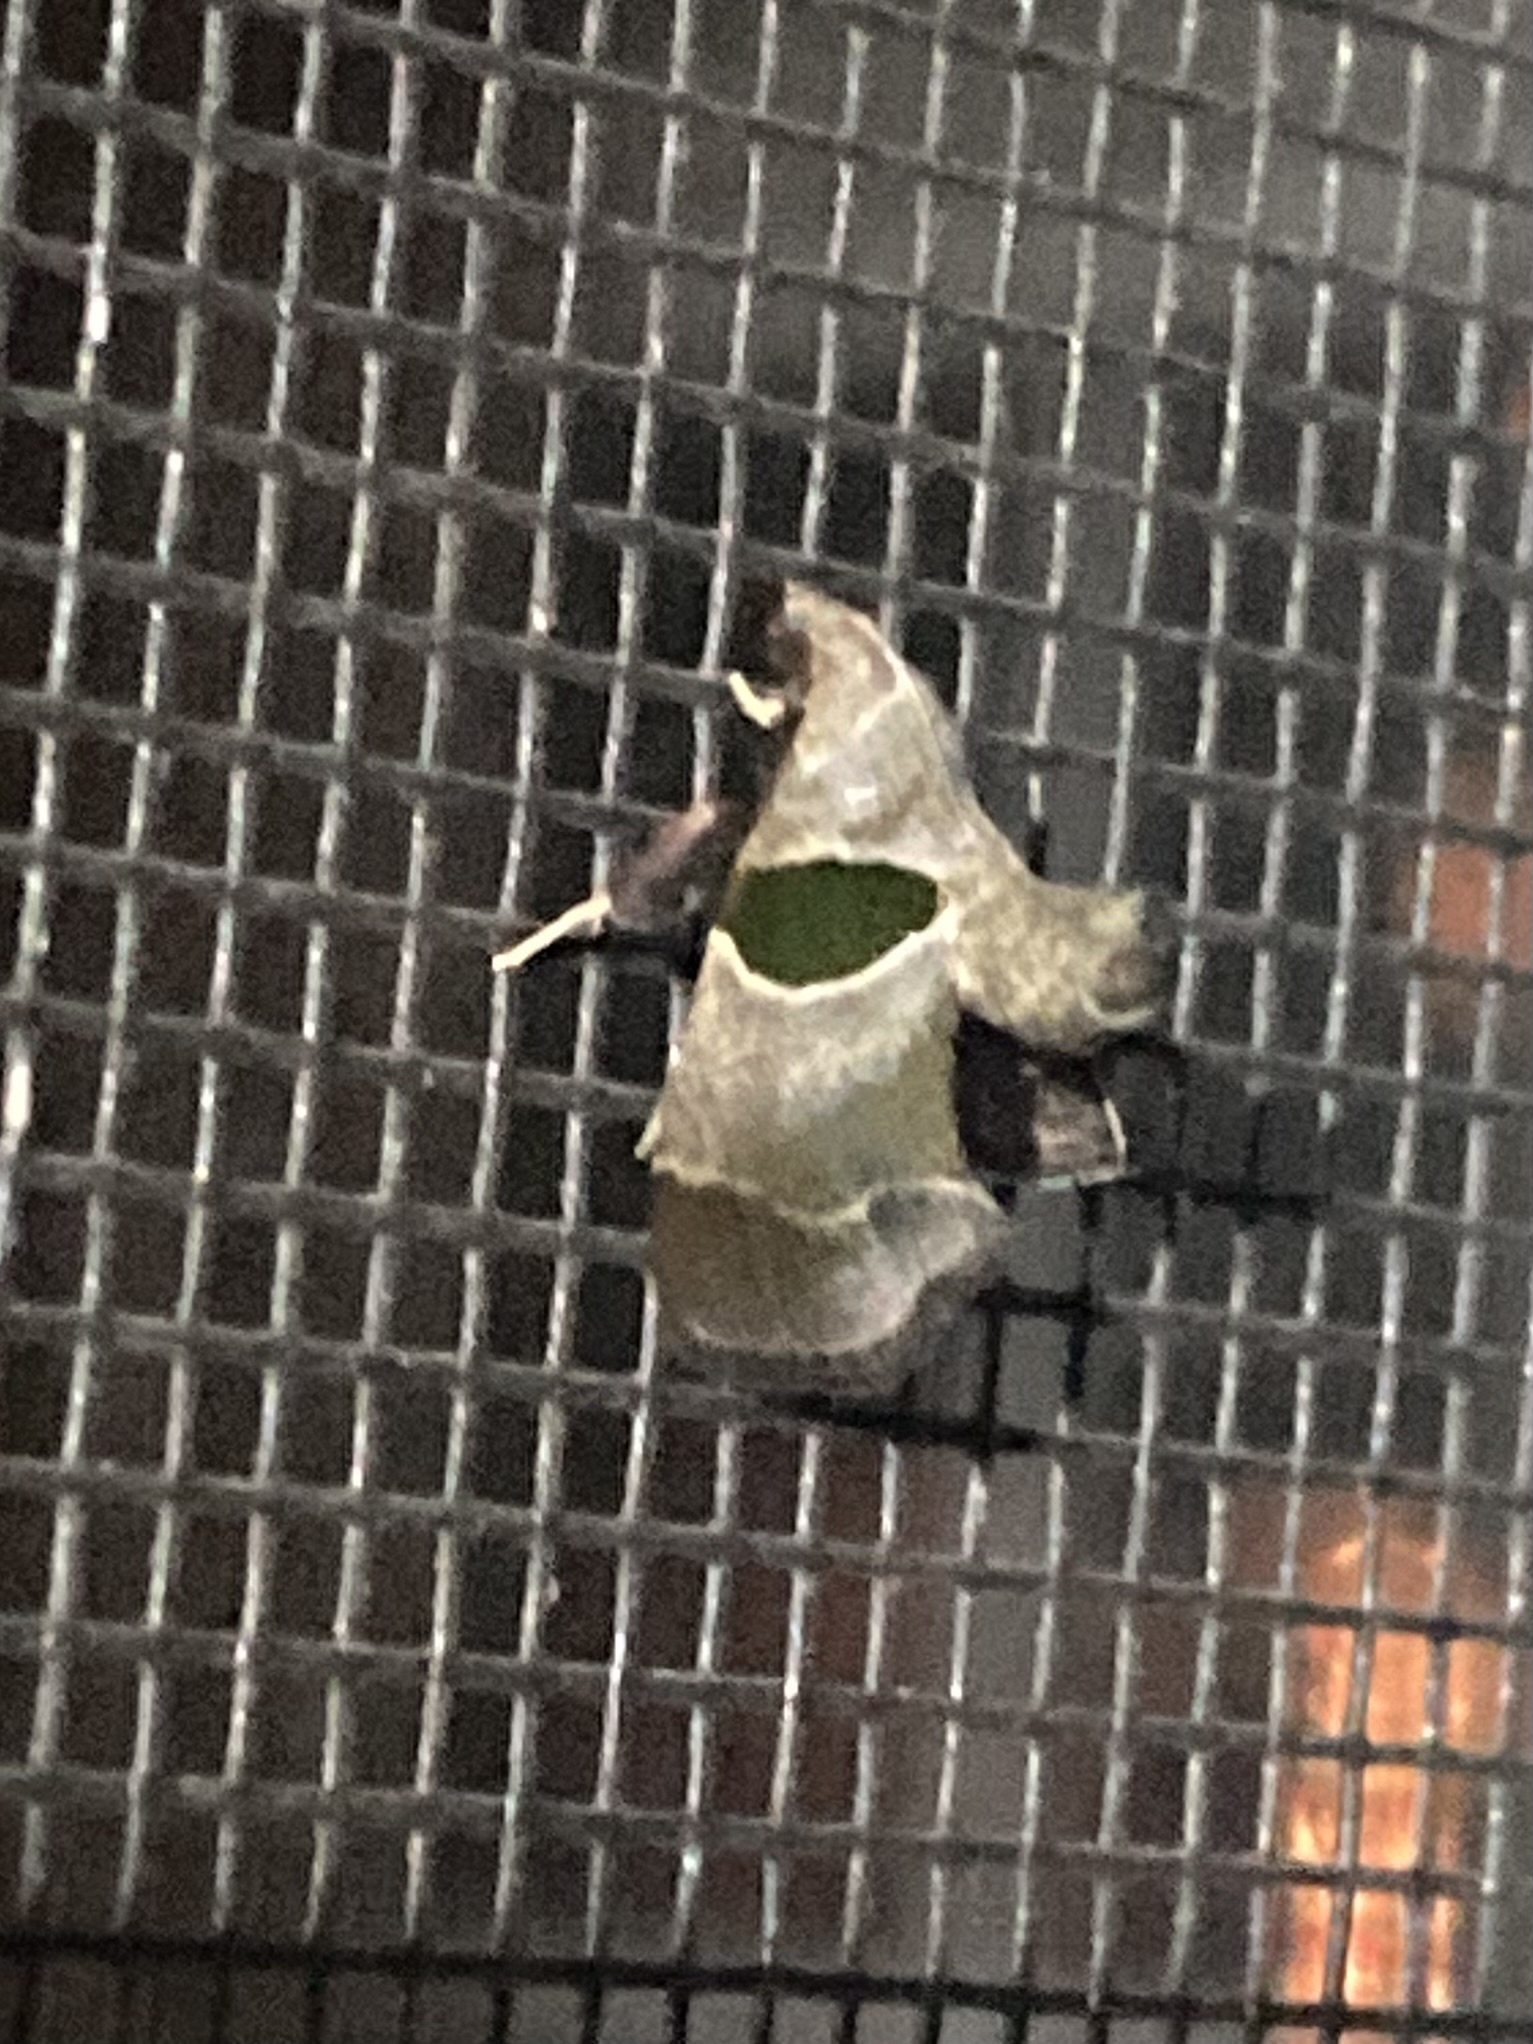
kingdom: Animalia
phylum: Arthropoda
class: Insecta
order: Lepidoptera
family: Pyralidae
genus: Tosale
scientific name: Tosale oviplagalis
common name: Dimorphic tosale moth
